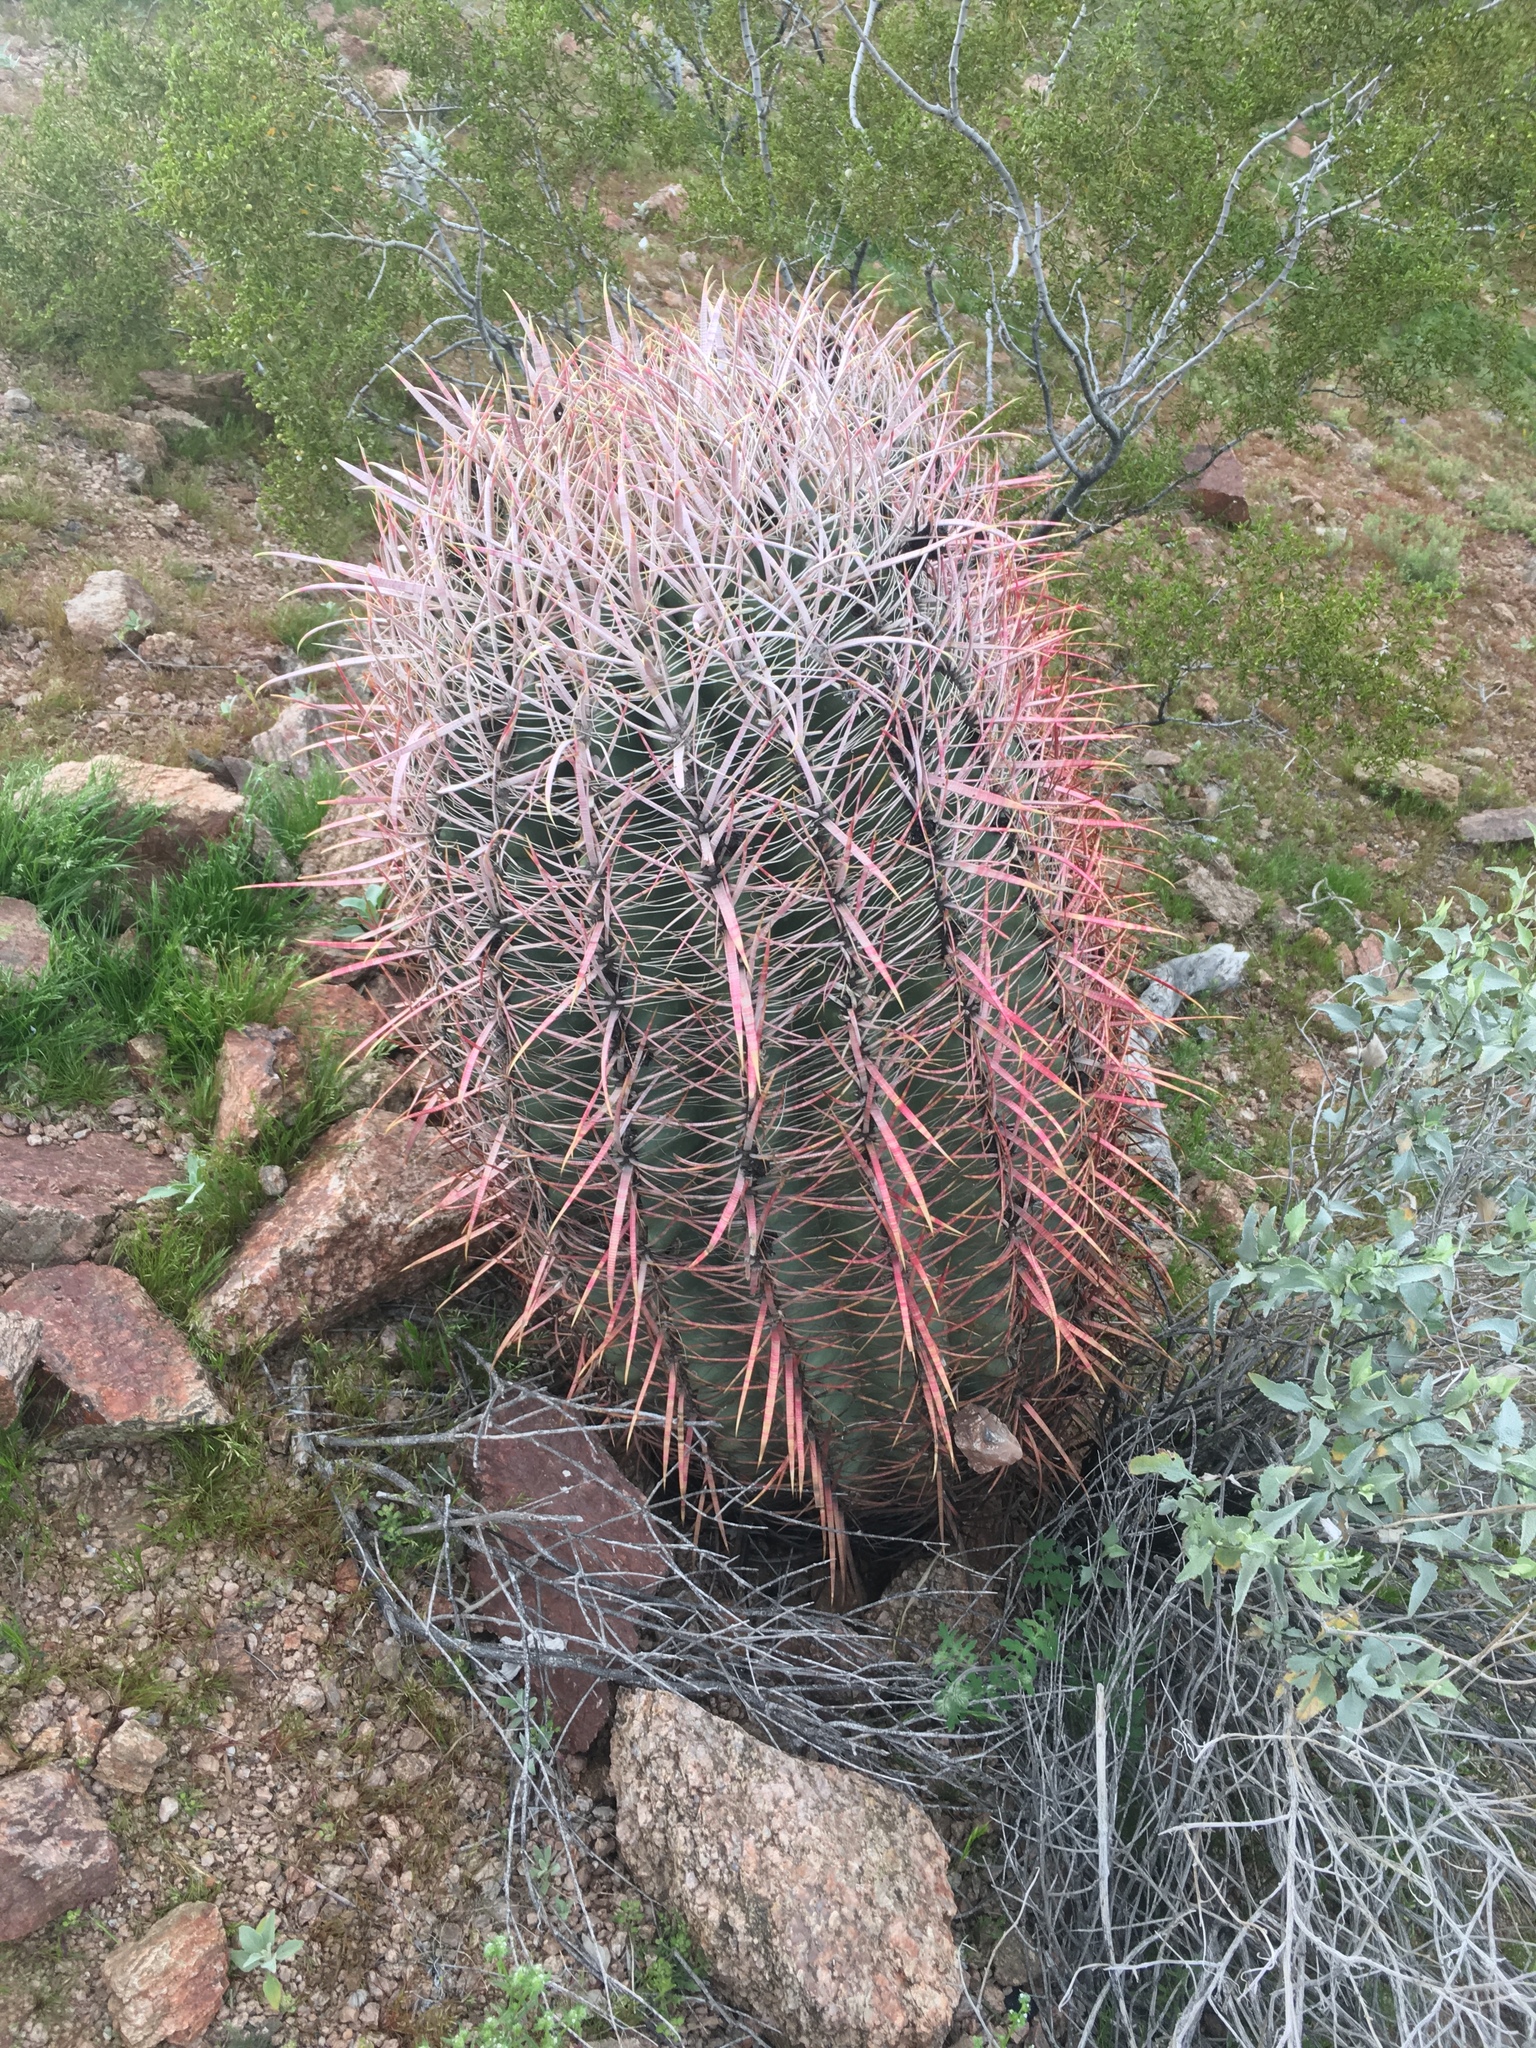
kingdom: Plantae
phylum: Tracheophyta
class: Magnoliopsida
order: Caryophyllales
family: Cactaceae
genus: Ferocactus
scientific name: Ferocactus cylindraceus
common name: California barrel cactus
